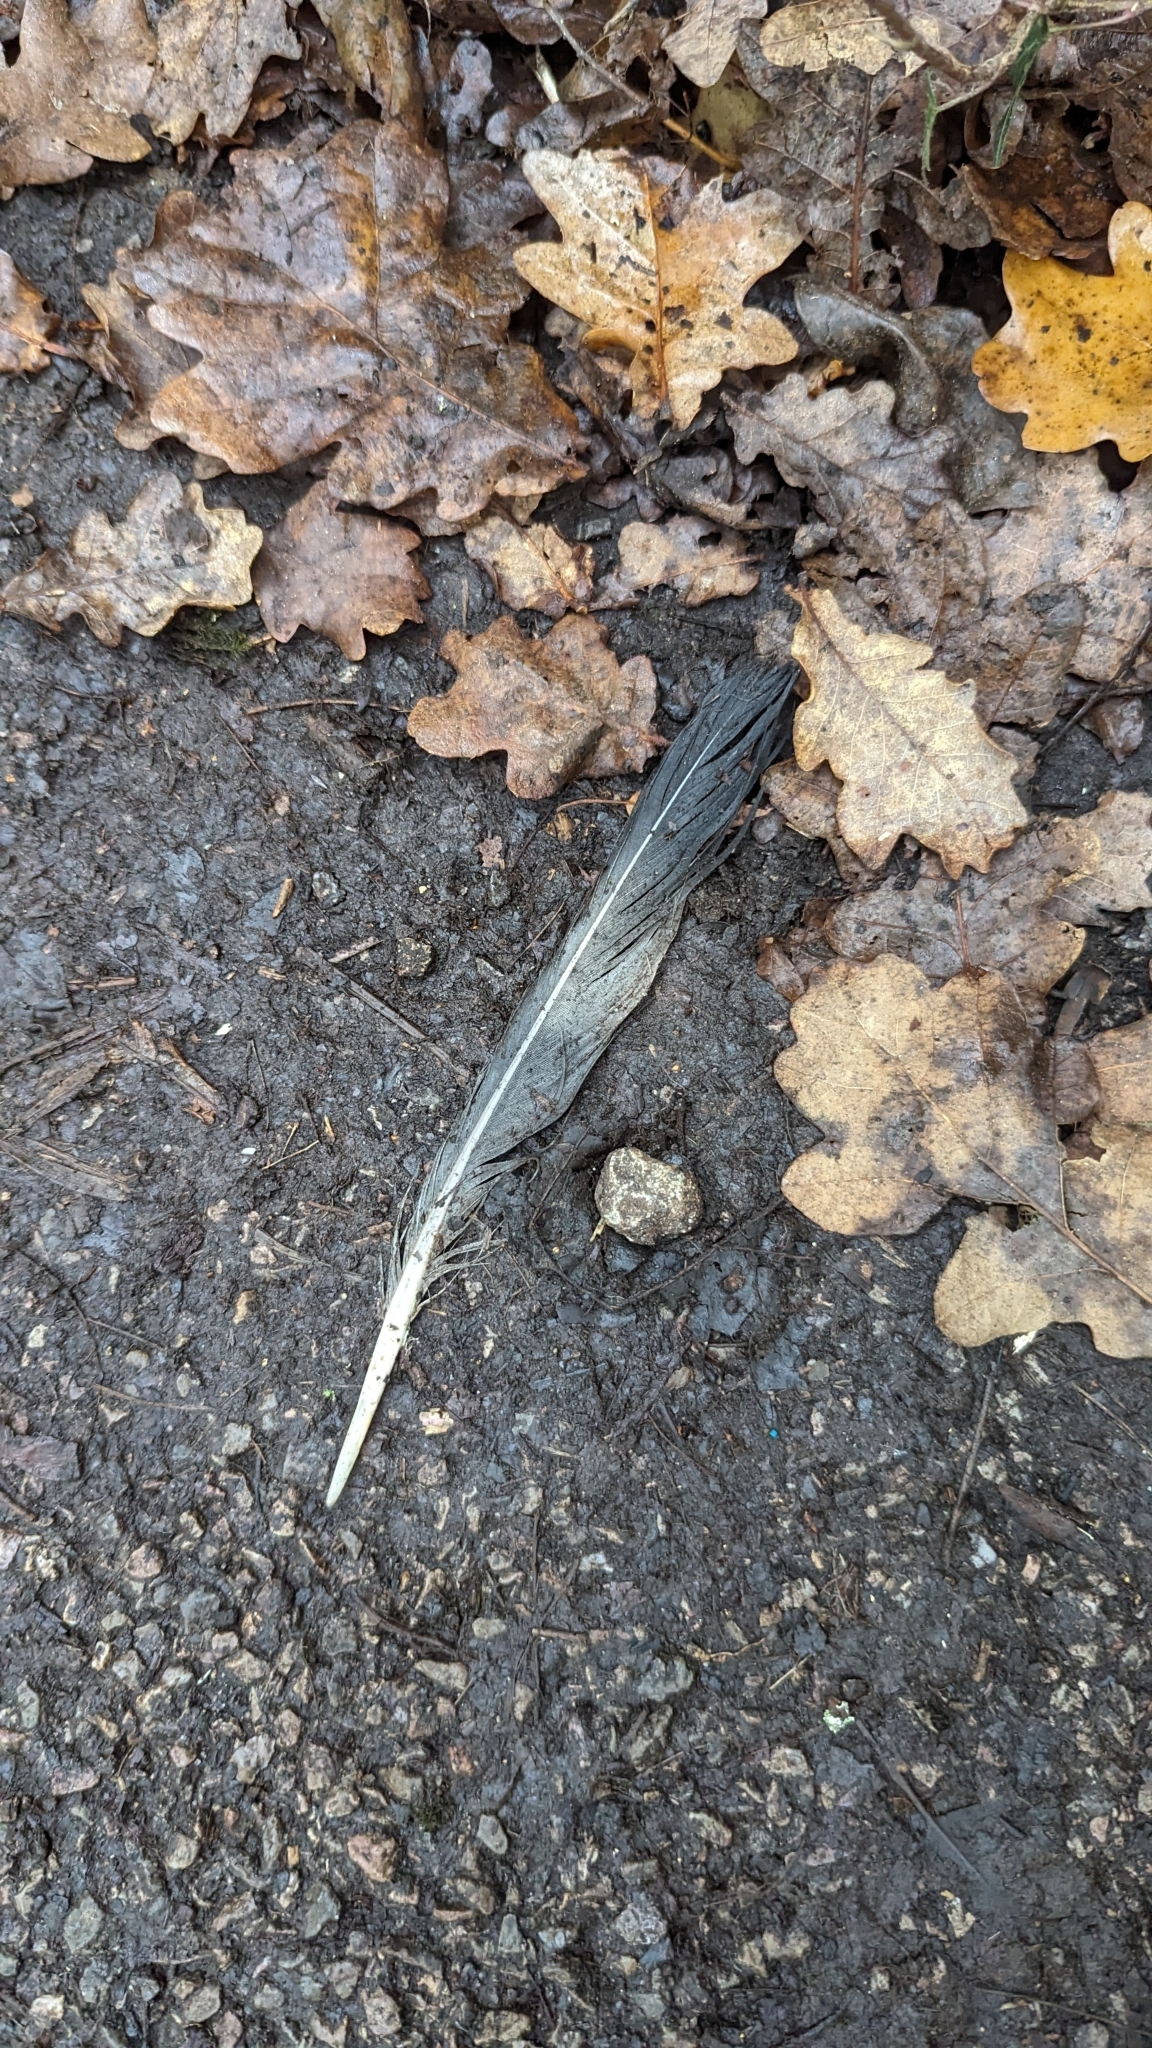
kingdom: Animalia
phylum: Chordata
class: Aves
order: Columbiformes
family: Columbidae
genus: Columba
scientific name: Columba palumbus
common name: Common wood pigeon
